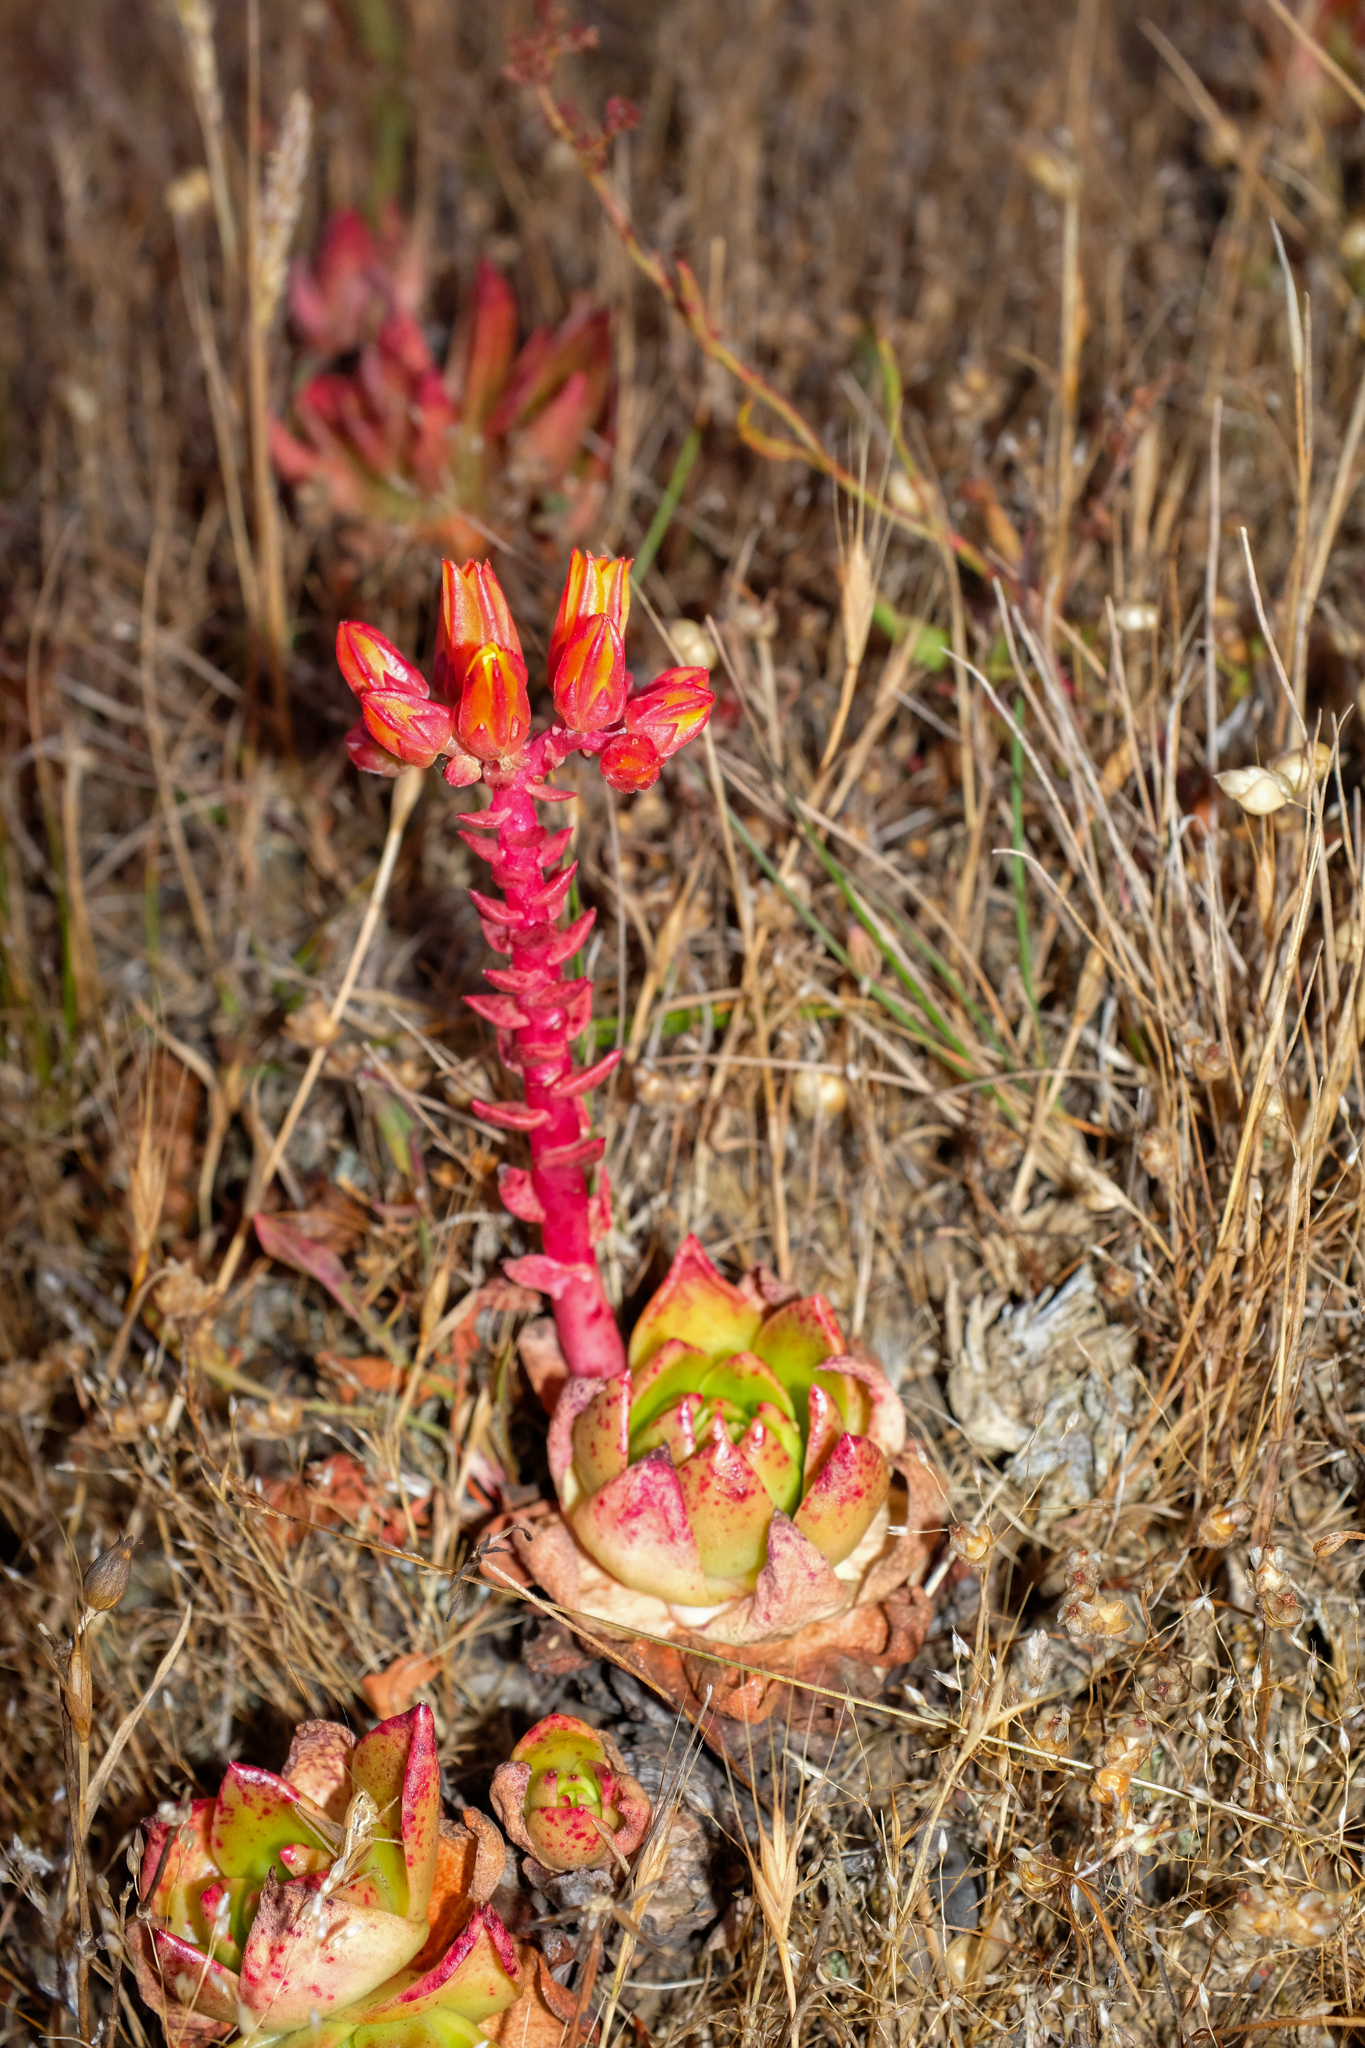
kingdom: Plantae
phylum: Tracheophyta
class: Magnoliopsida
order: Saxifragales
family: Crassulaceae
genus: Dudleya
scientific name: Dudleya palmeri
